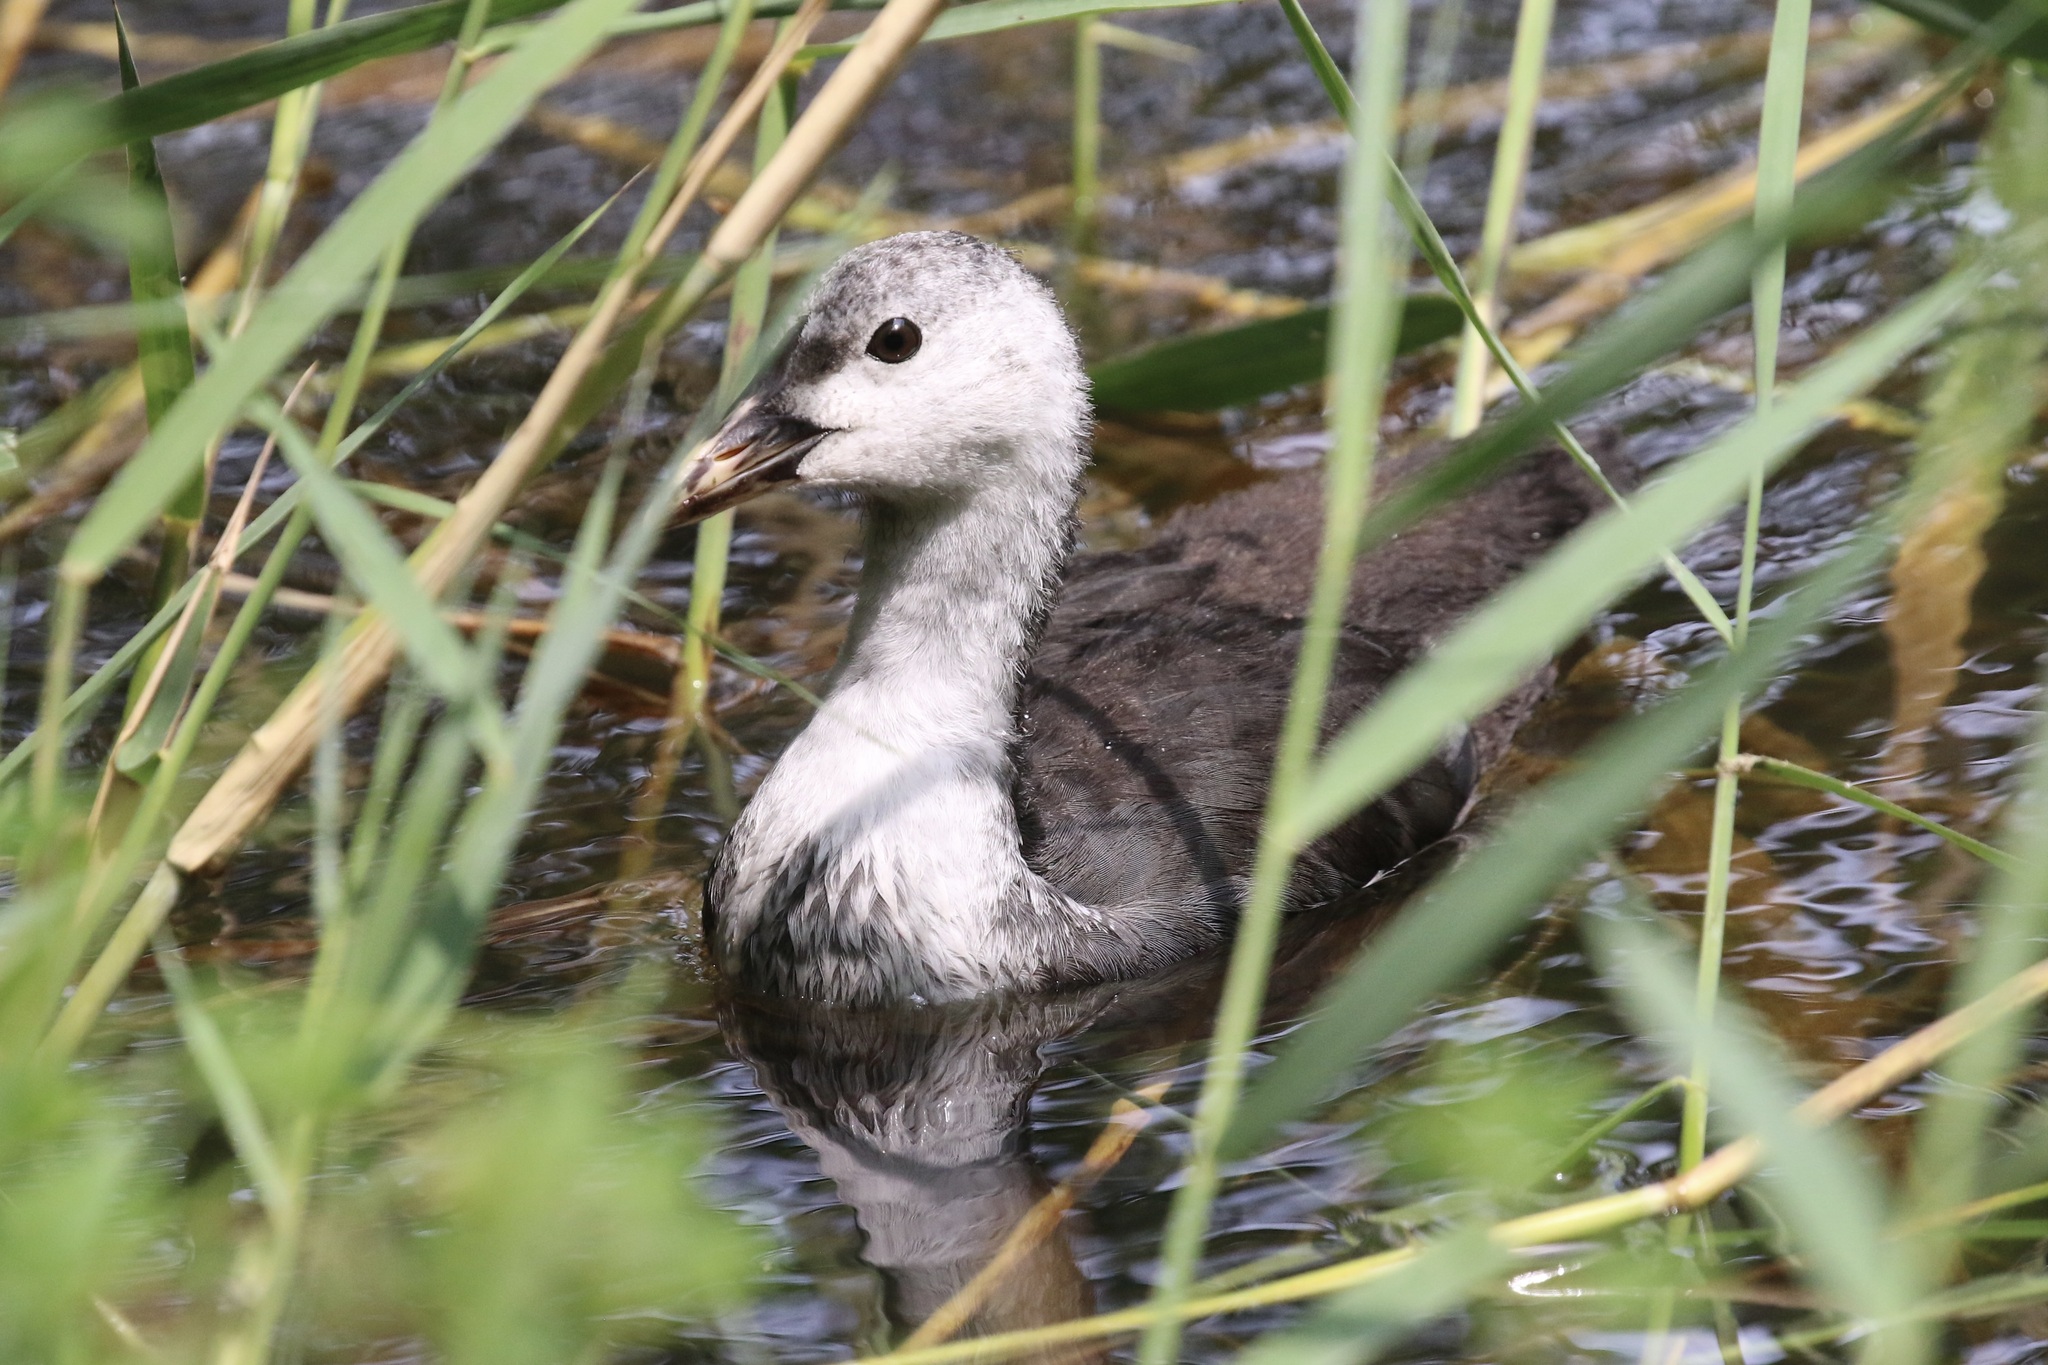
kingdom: Animalia
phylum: Chordata
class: Aves
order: Gruiformes
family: Rallidae
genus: Fulica
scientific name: Fulica atra
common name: Eurasian coot
